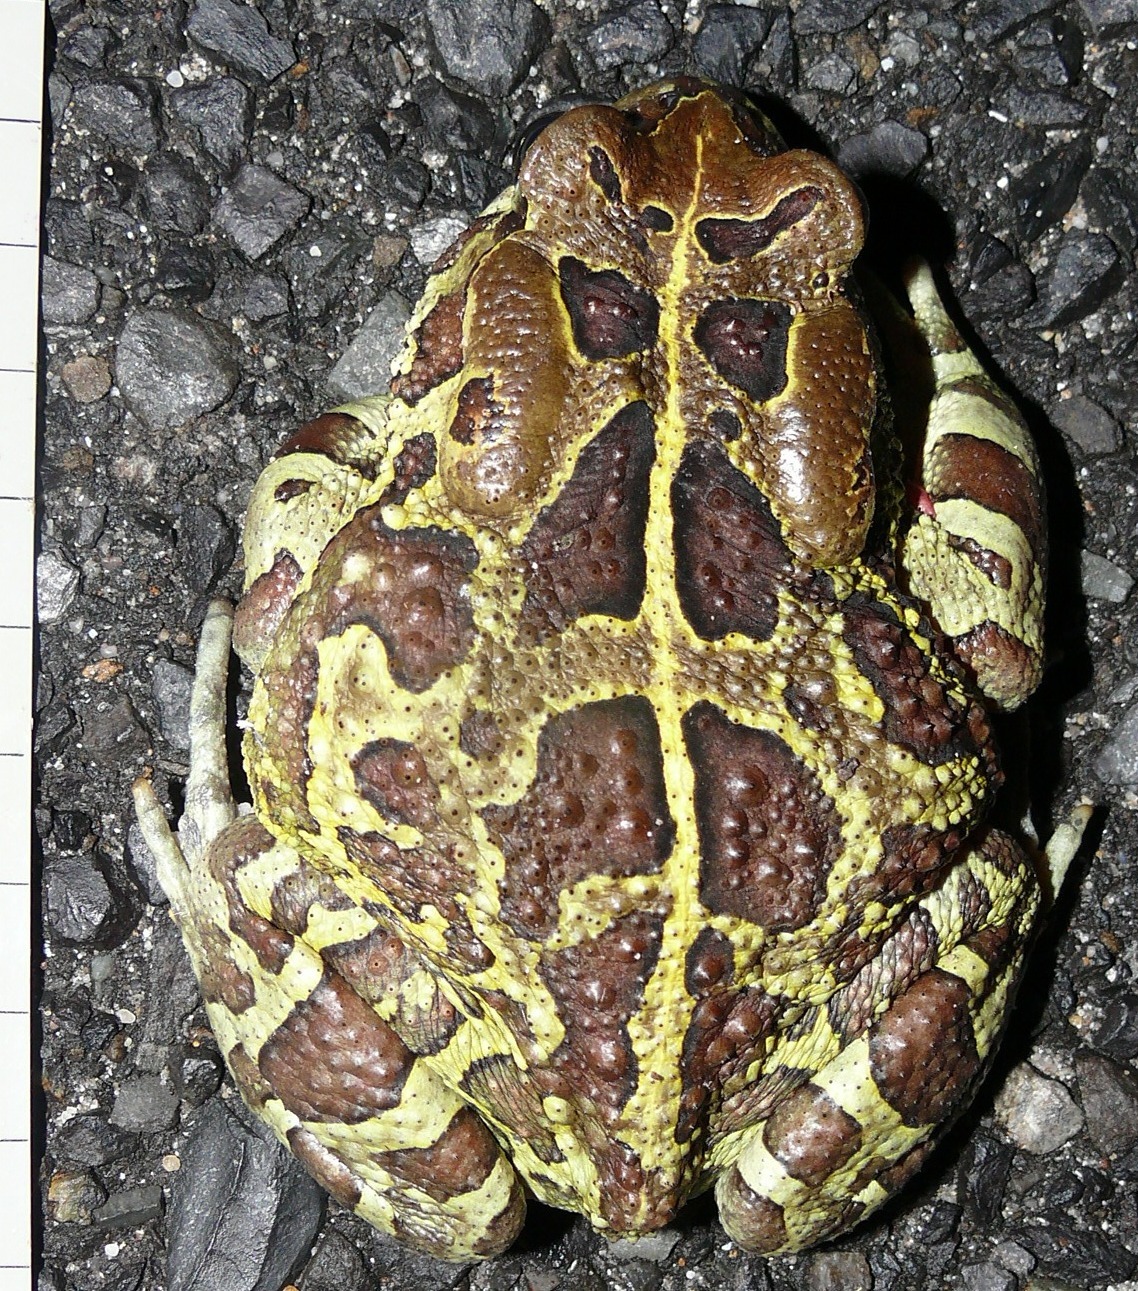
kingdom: Animalia
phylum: Chordata
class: Amphibia
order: Anura
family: Bufonidae
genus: Sclerophrys
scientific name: Sclerophrys pantherina
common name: Panther toad
